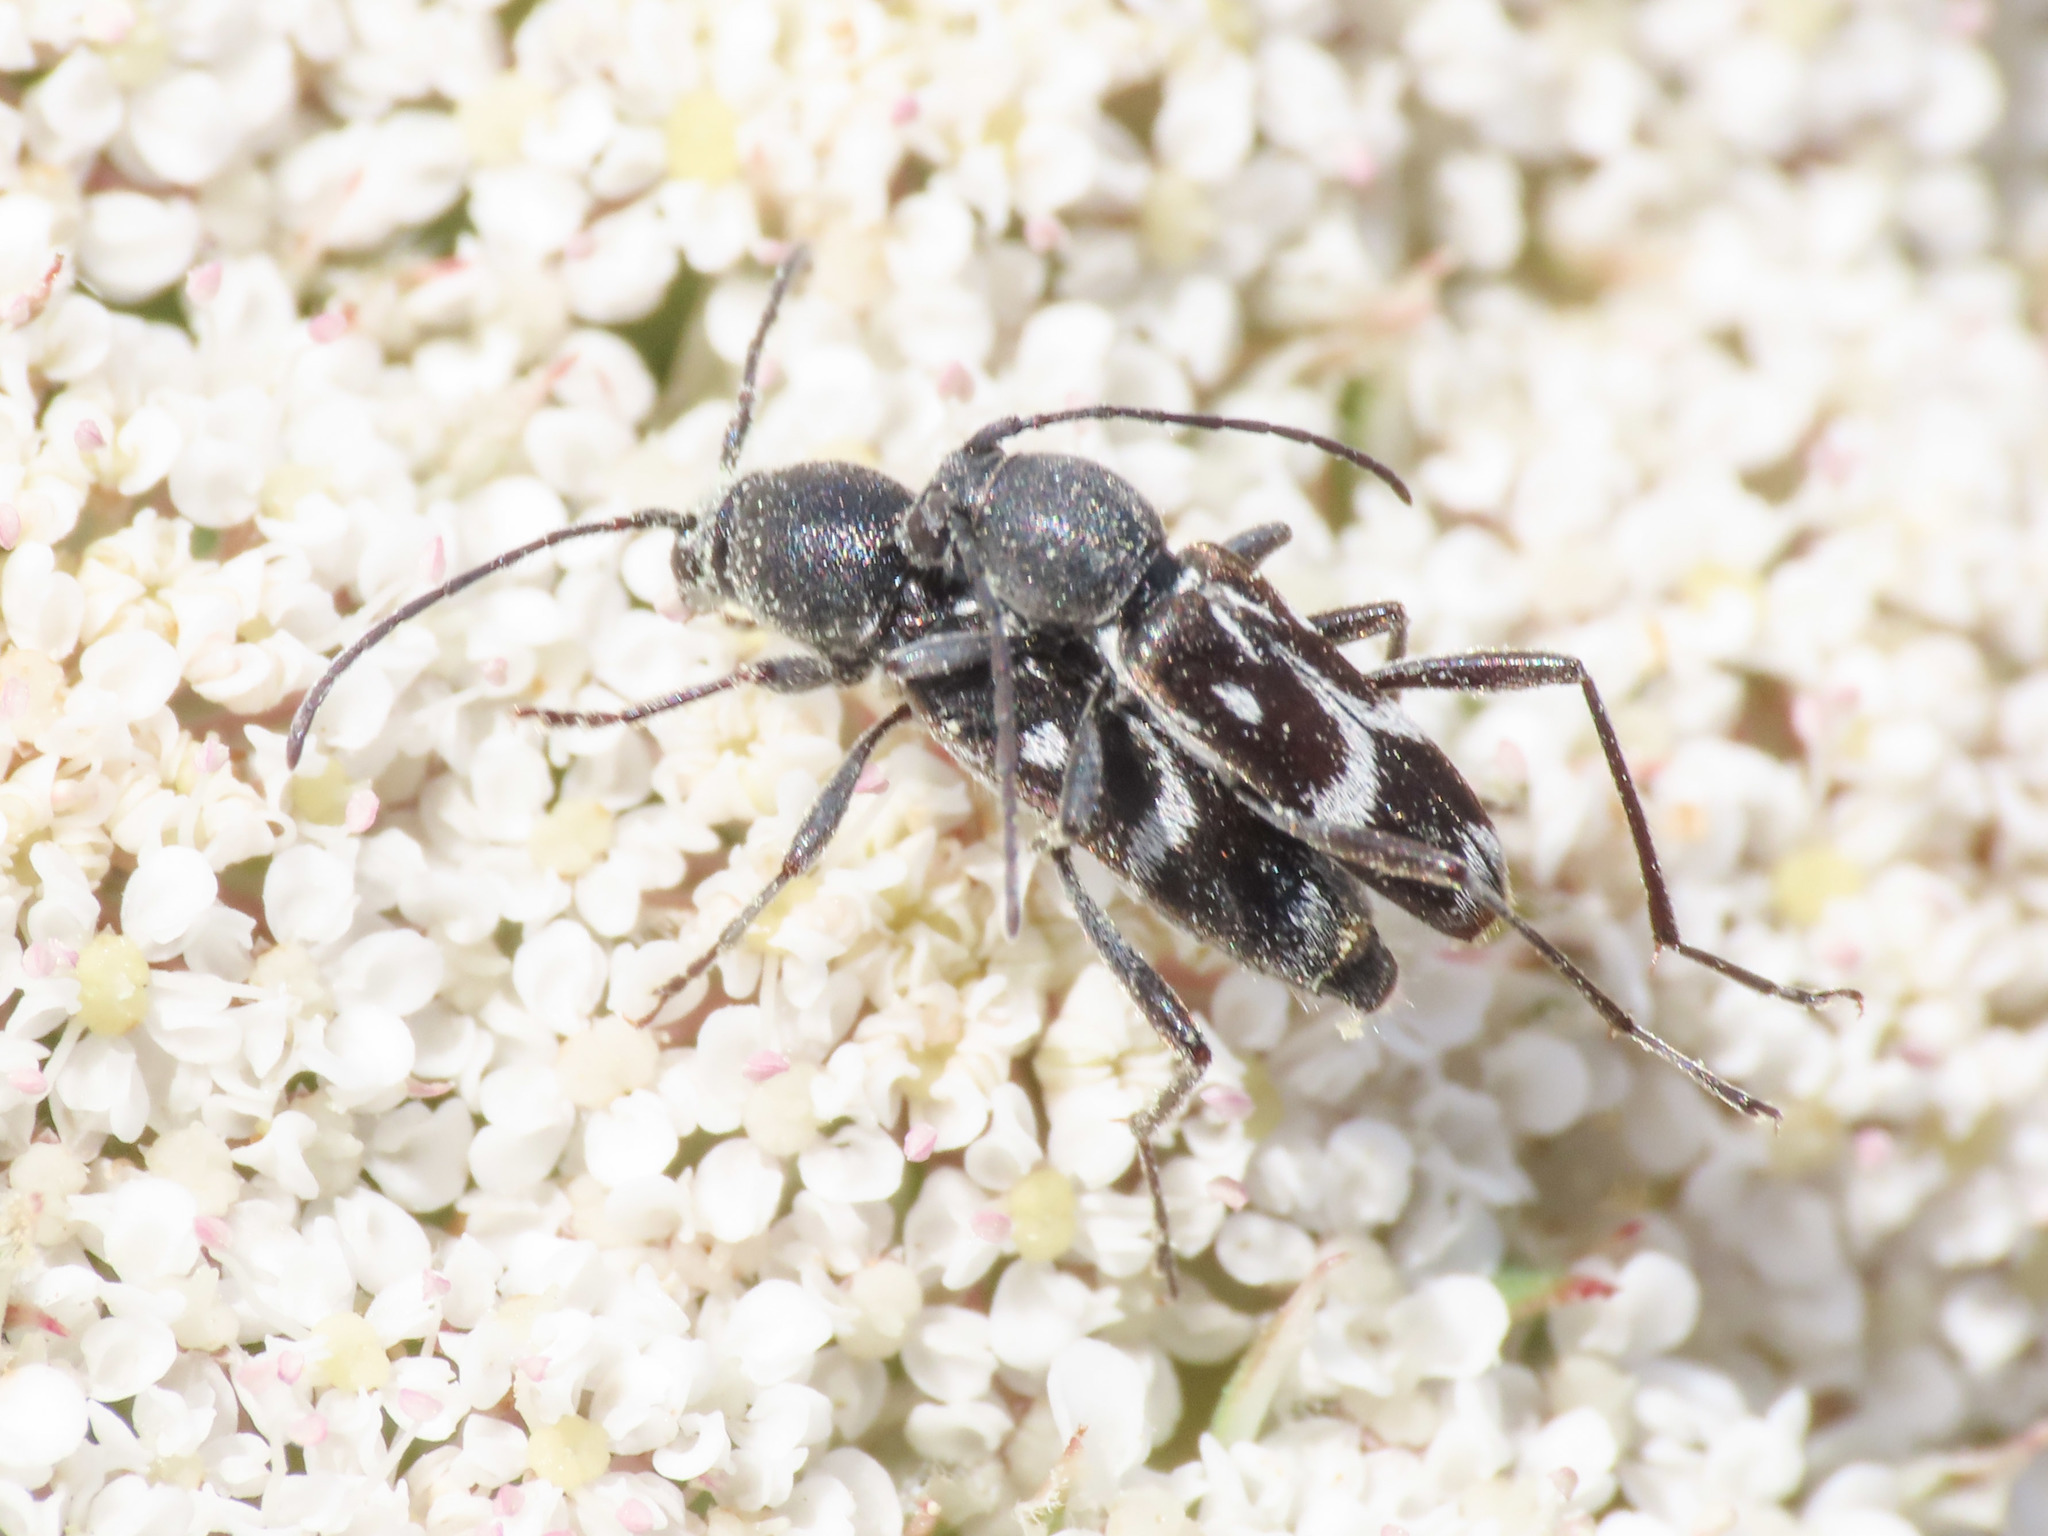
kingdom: Animalia
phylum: Arthropoda
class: Insecta
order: Coleoptera
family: Cerambycidae
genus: Chlorophorus
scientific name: Chlorophorus sartor
